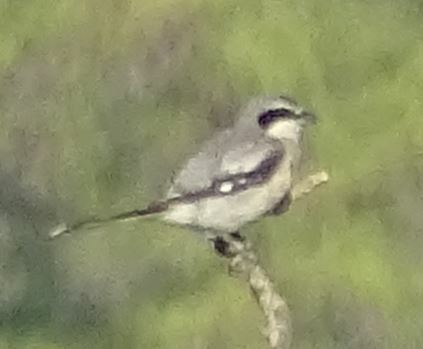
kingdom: Animalia
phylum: Chordata
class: Aves
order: Passeriformes
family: Laniidae
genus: Lanius
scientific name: Lanius meridionalis
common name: Iberian grey shrike
